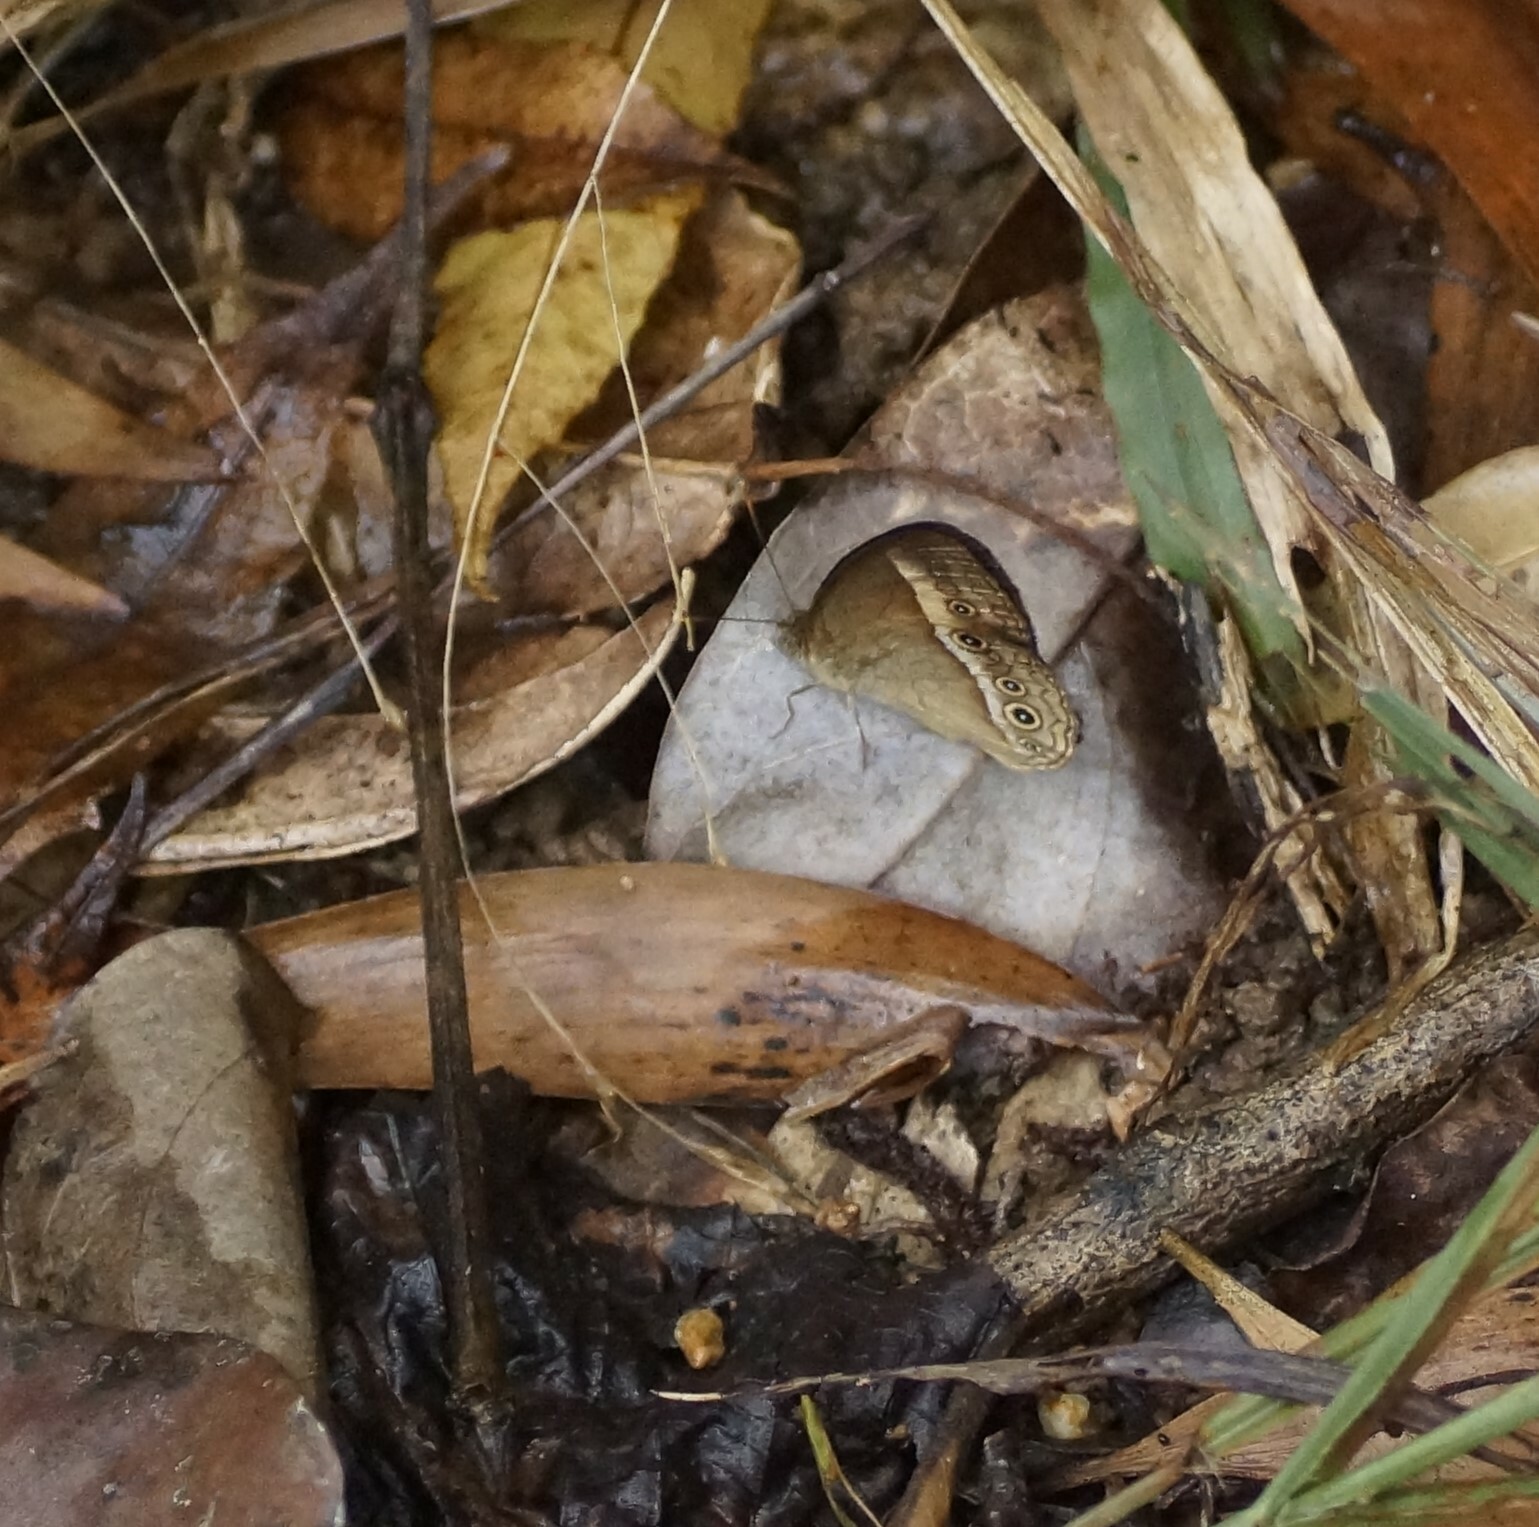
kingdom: Animalia
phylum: Arthropoda
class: Insecta
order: Lepidoptera
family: Nymphalidae
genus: Mycalesis
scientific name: Mycalesis terminus
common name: Orange bushbrown
